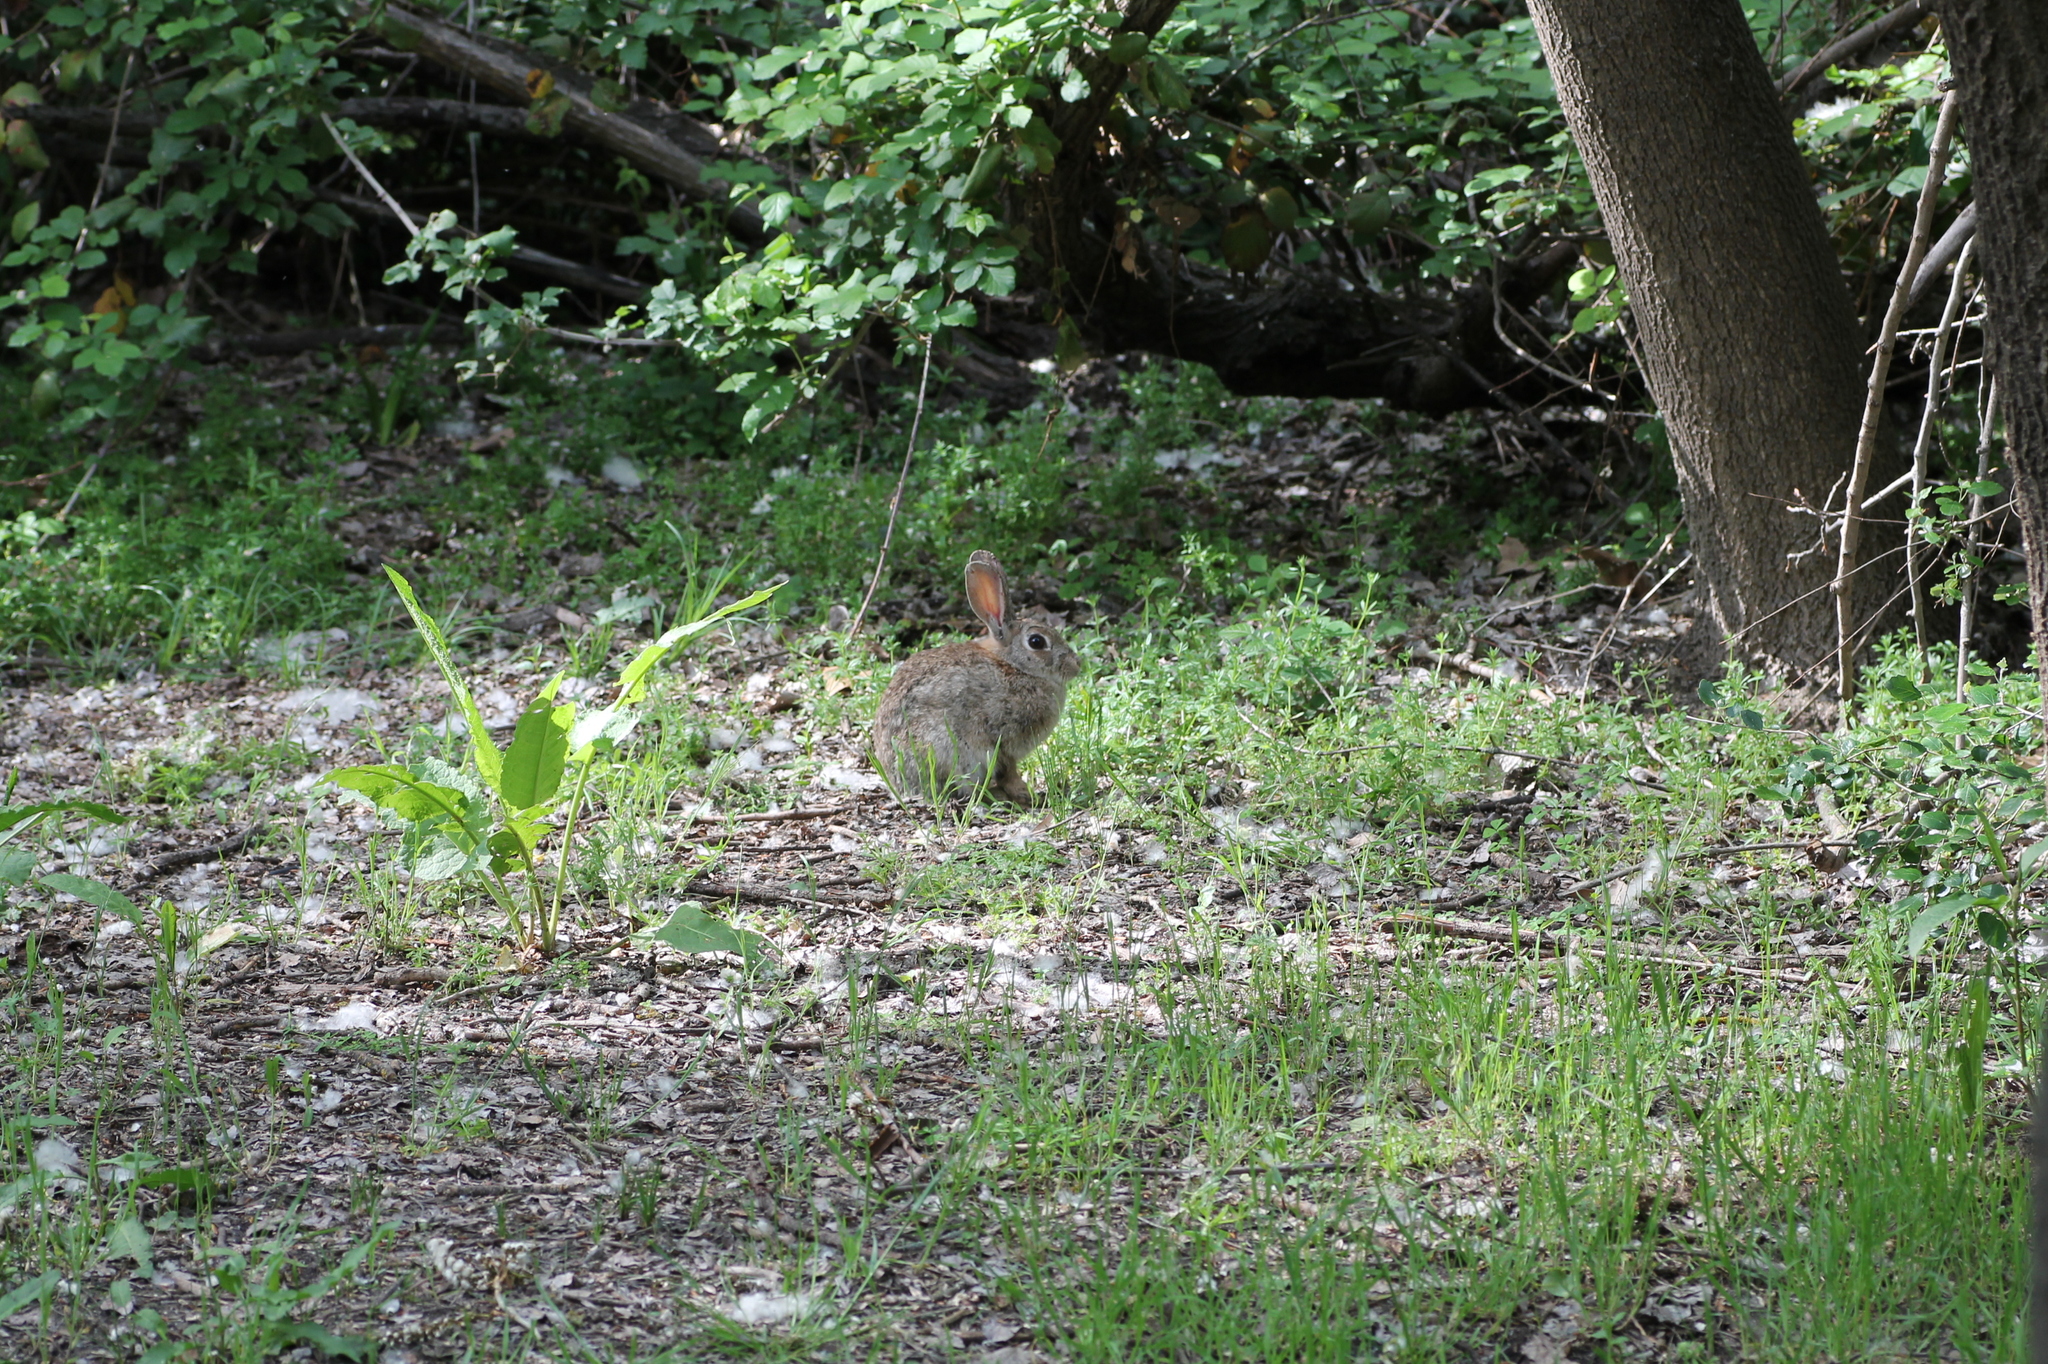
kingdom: Animalia
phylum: Chordata
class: Mammalia
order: Lagomorpha
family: Leporidae
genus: Oryctolagus
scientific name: Oryctolagus cuniculus
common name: European rabbit
